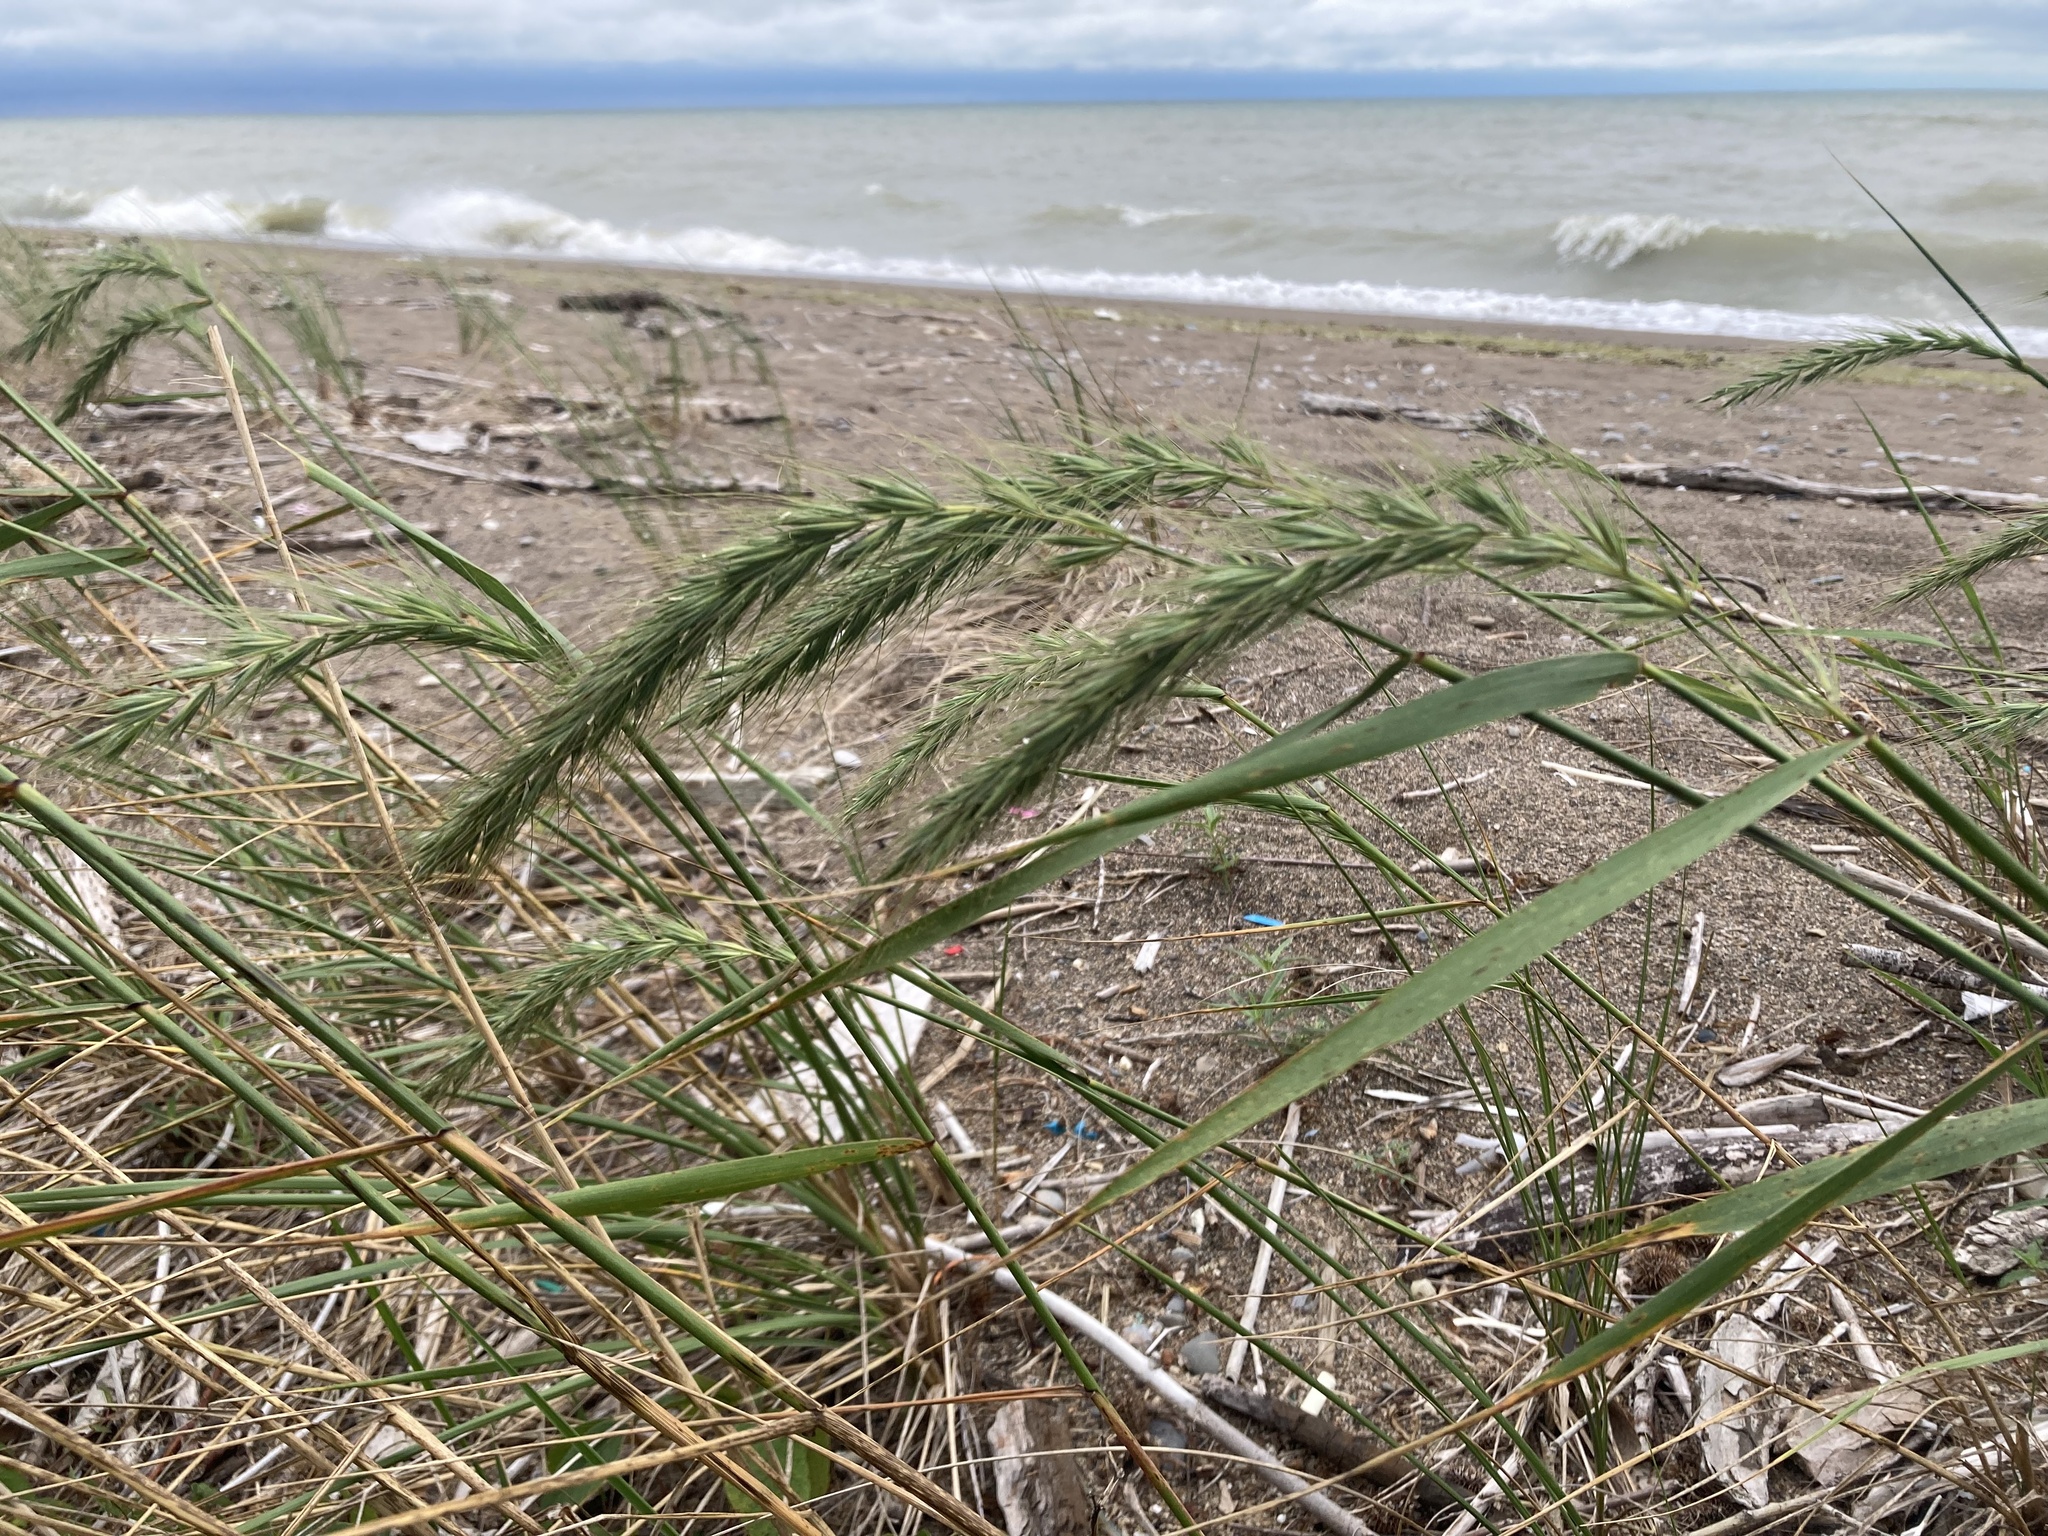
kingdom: Plantae
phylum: Tracheophyta
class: Liliopsida
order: Poales
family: Poaceae
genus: Elymus
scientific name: Elymus canadensis
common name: Canada wild rye
